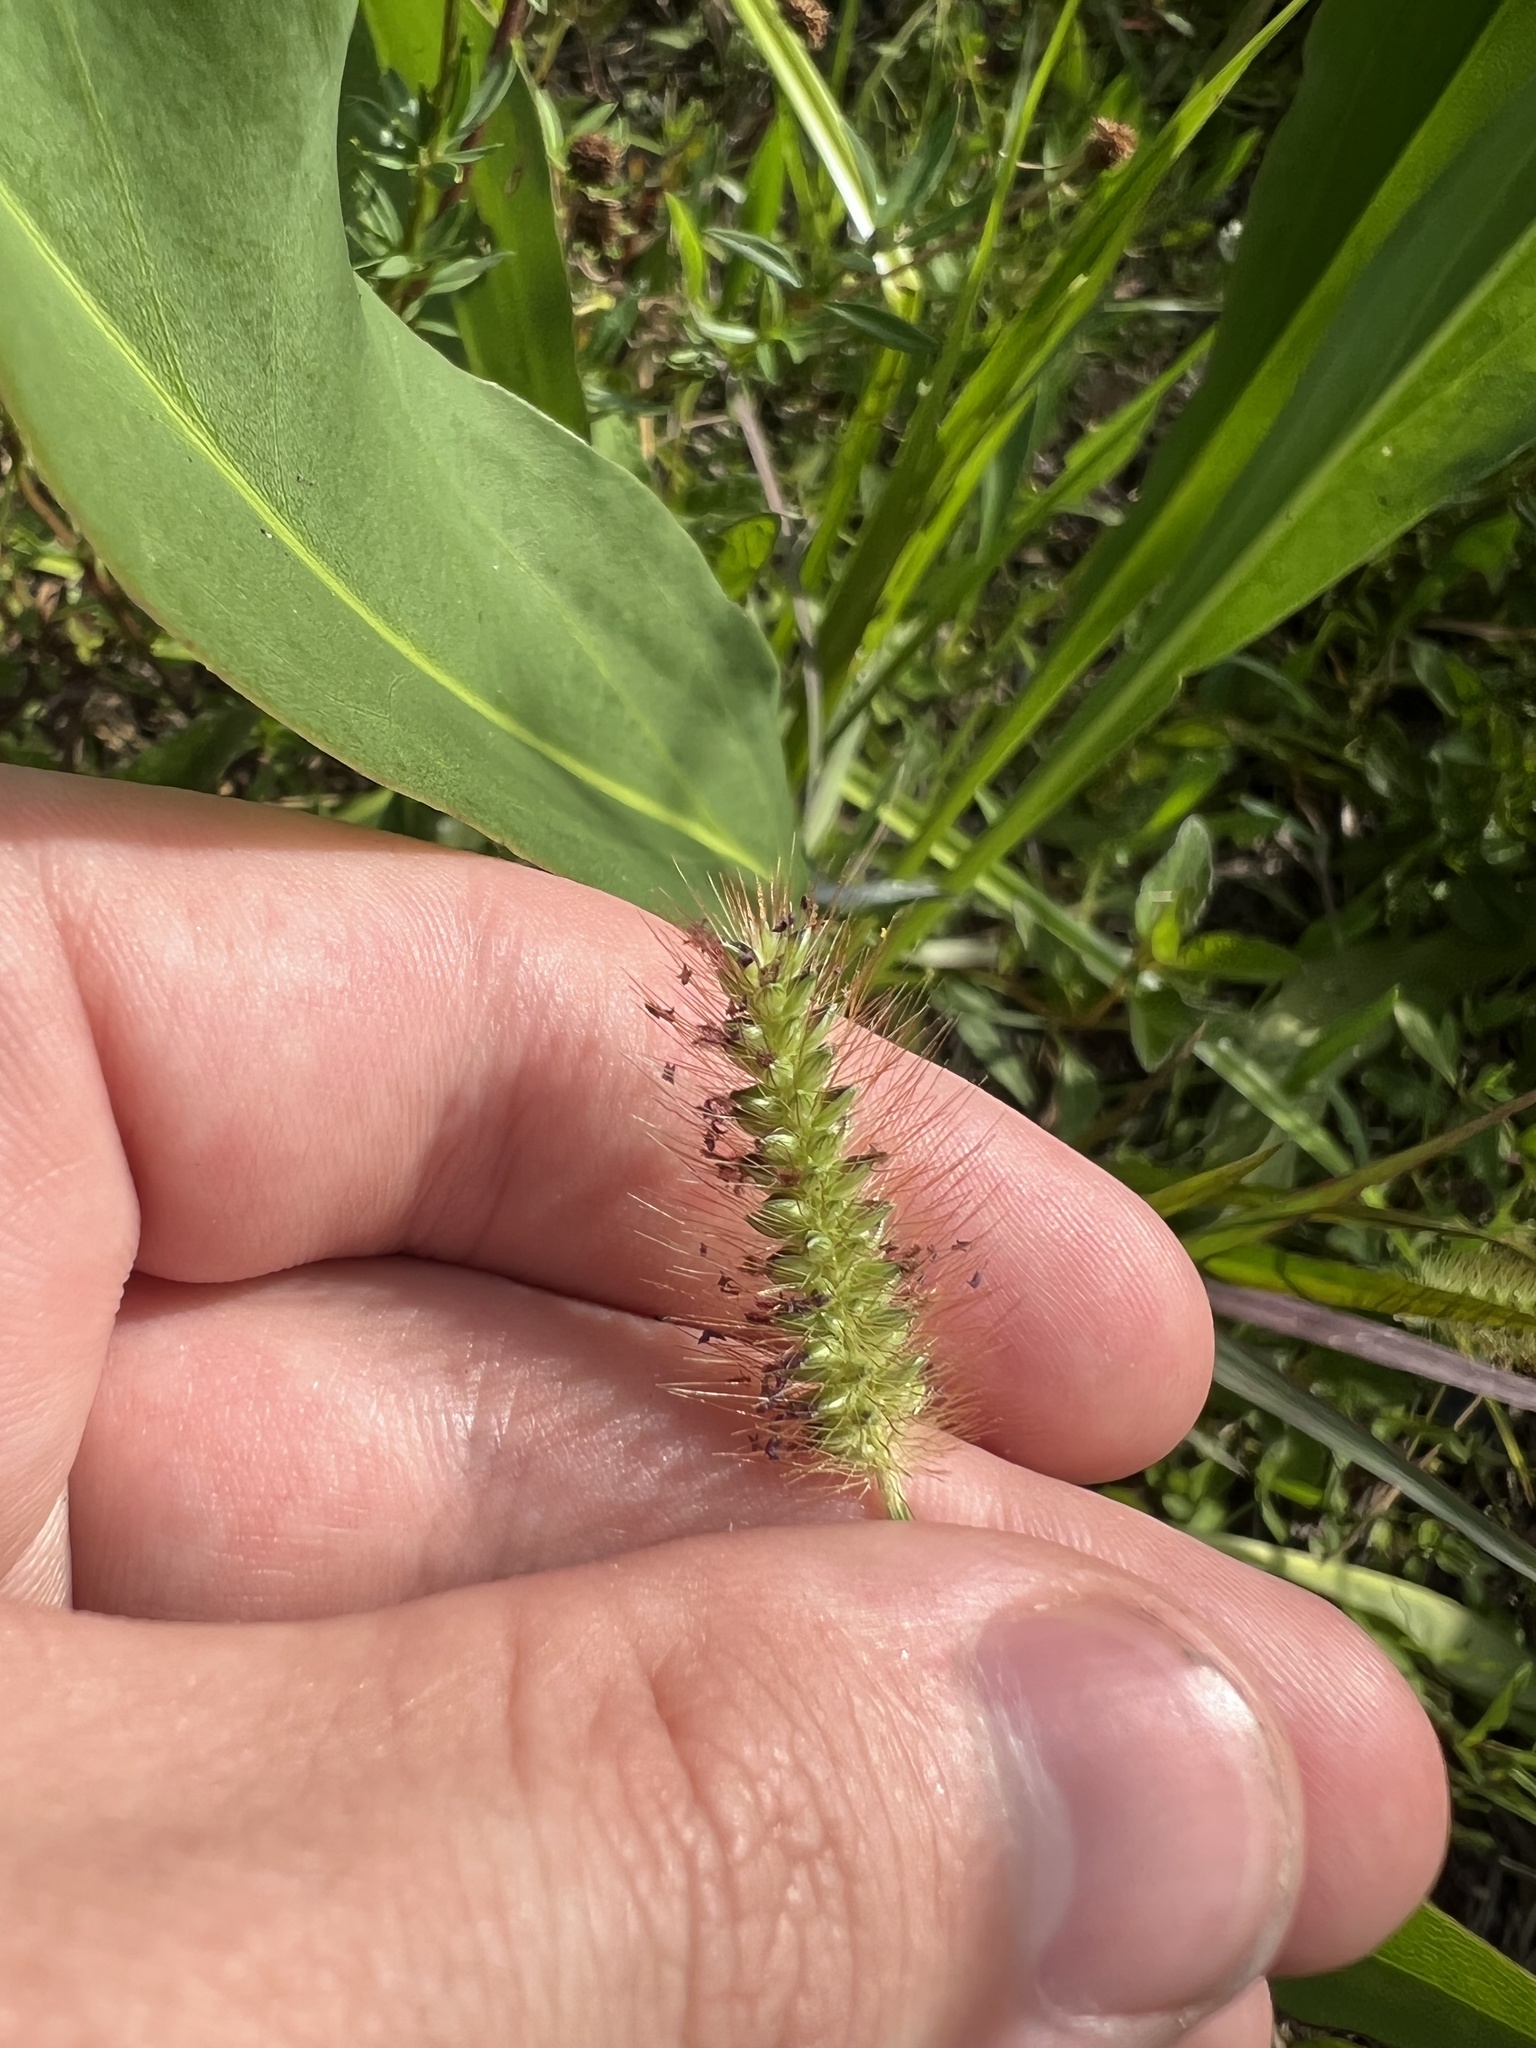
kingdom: Plantae
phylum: Tracheophyta
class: Liliopsida
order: Poales
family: Poaceae
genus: Setaria
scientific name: Setaria parviflora
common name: Knotroot bristle-grass
